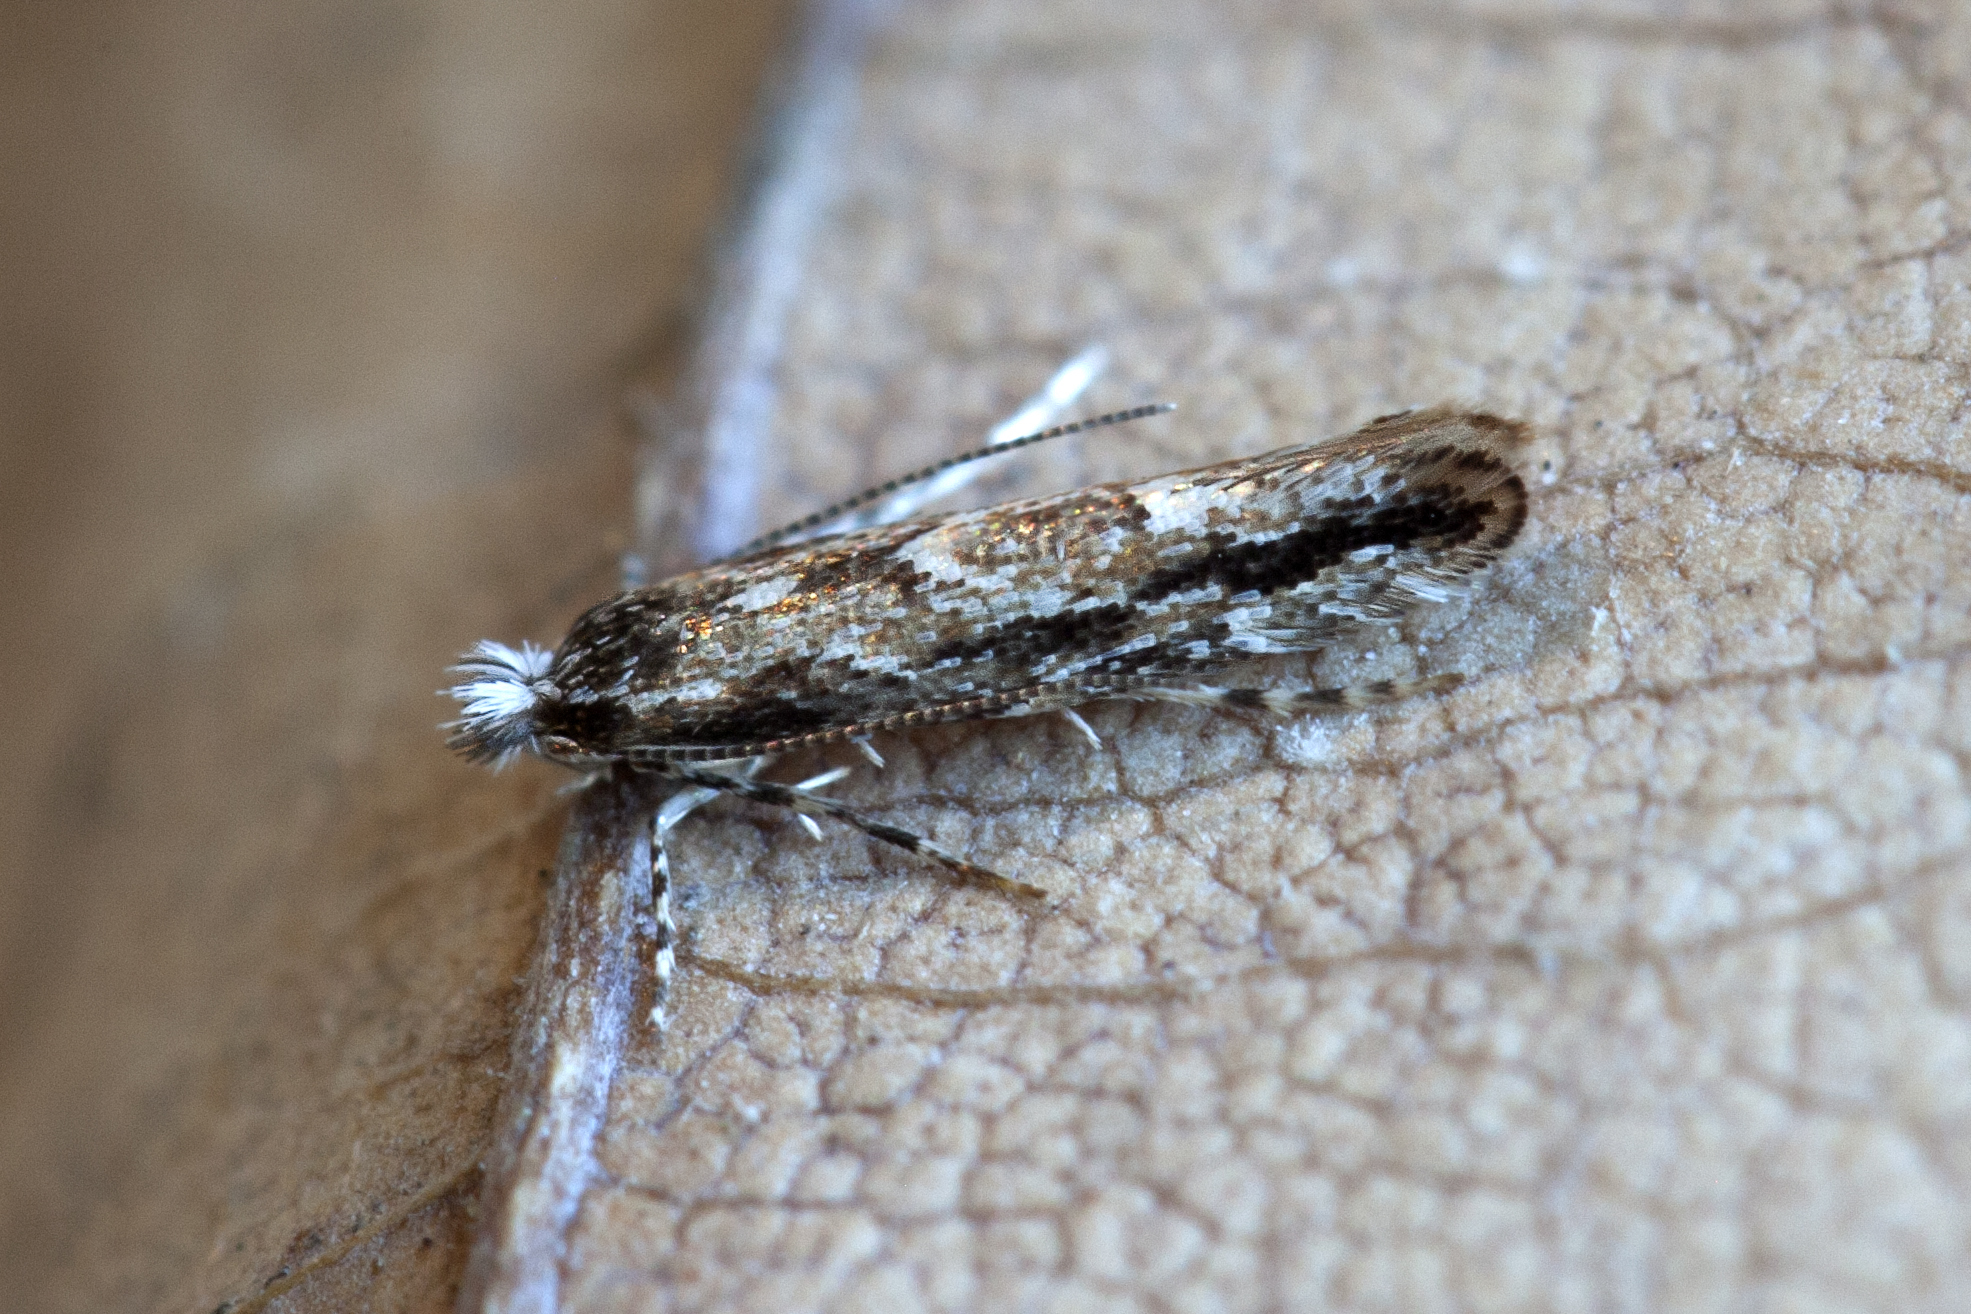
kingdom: Animalia
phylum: Arthropoda
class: Insecta
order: Lepidoptera
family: Gracillariidae
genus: Phyllonorycter
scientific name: Phyllonorycter issikii
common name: Linden midget
